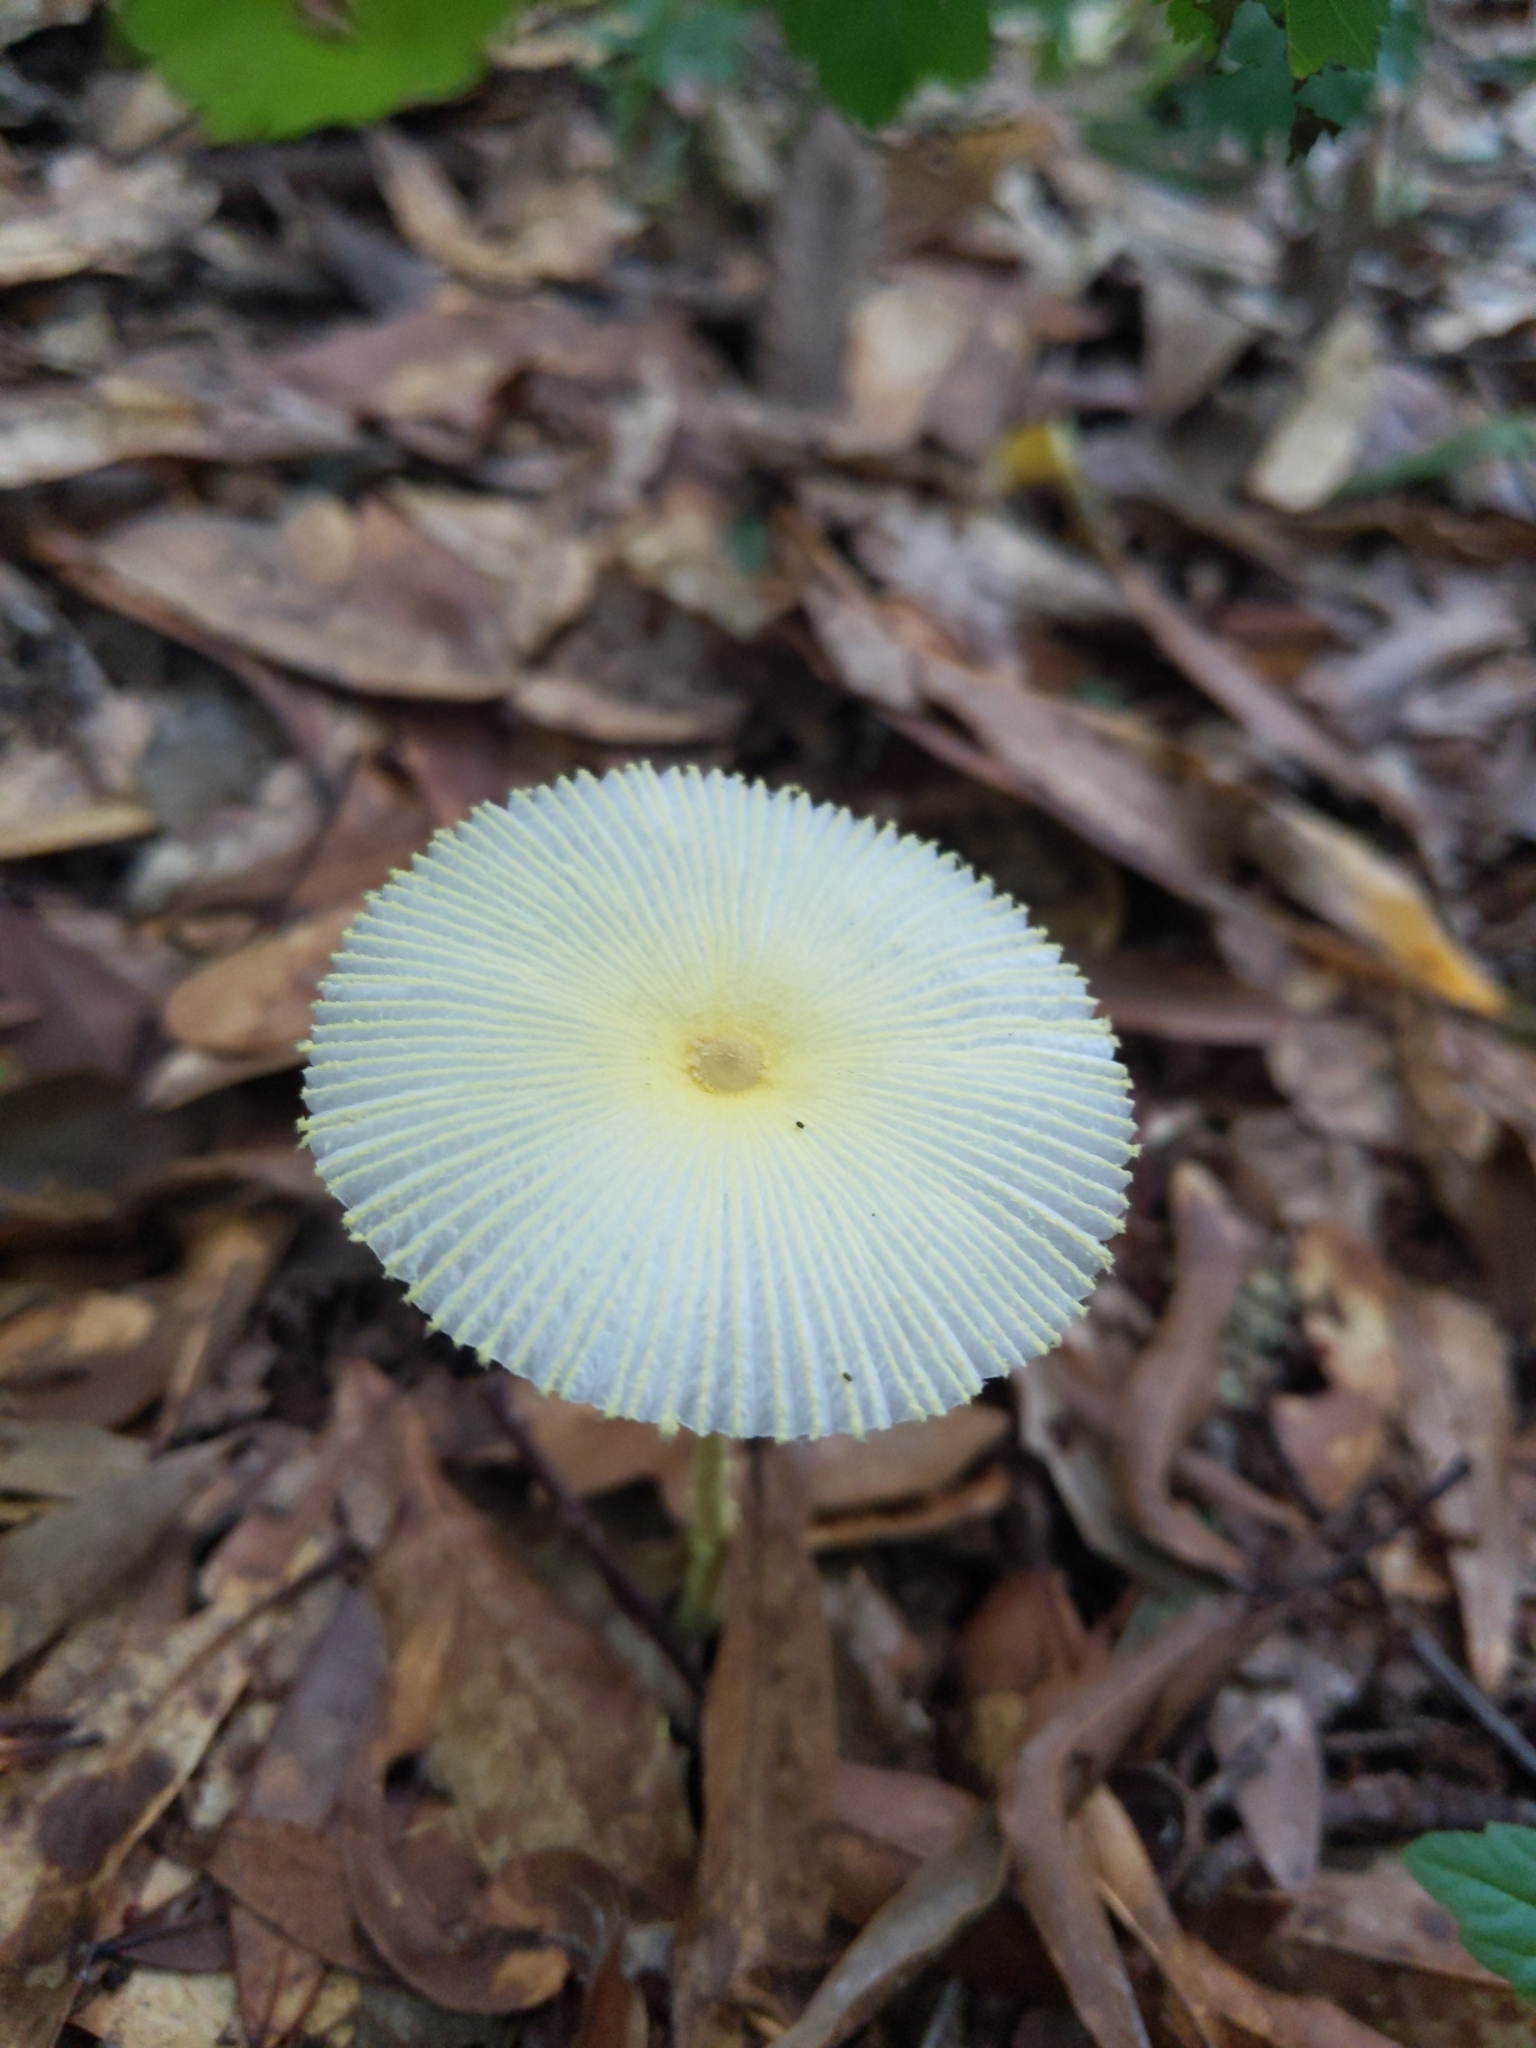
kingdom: Fungi
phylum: Basidiomycota
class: Agaricomycetes
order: Agaricales
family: Agaricaceae
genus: Leucocoprinus
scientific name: Leucocoprinus fragilissimus
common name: Fragile dapperling
